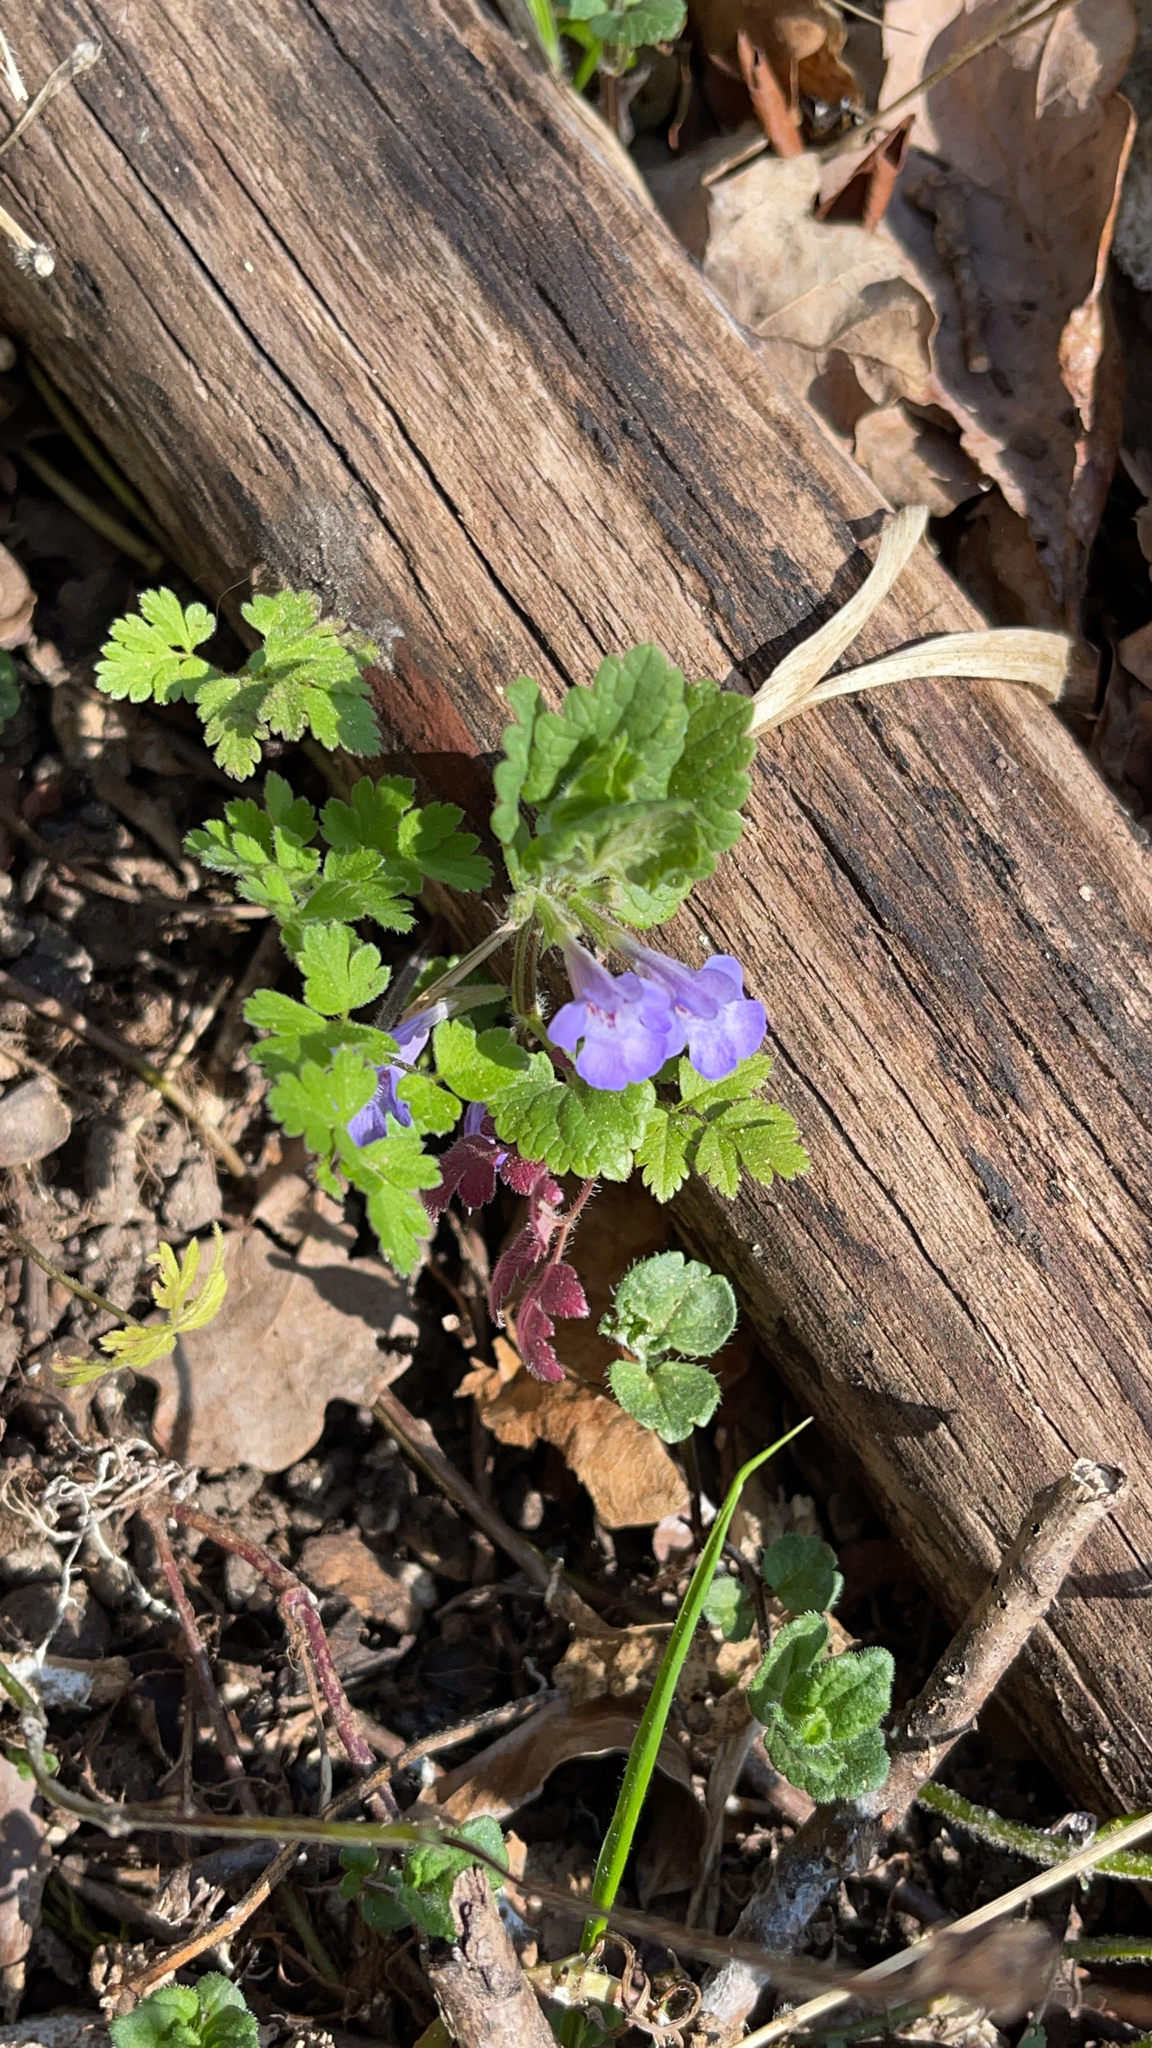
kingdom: Plantae
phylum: Tracheophyta
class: Magnoliopsida
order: Lamiales
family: Lamiaceae
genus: Glechoma
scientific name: Glechoma hederacea
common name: Ground ivy
